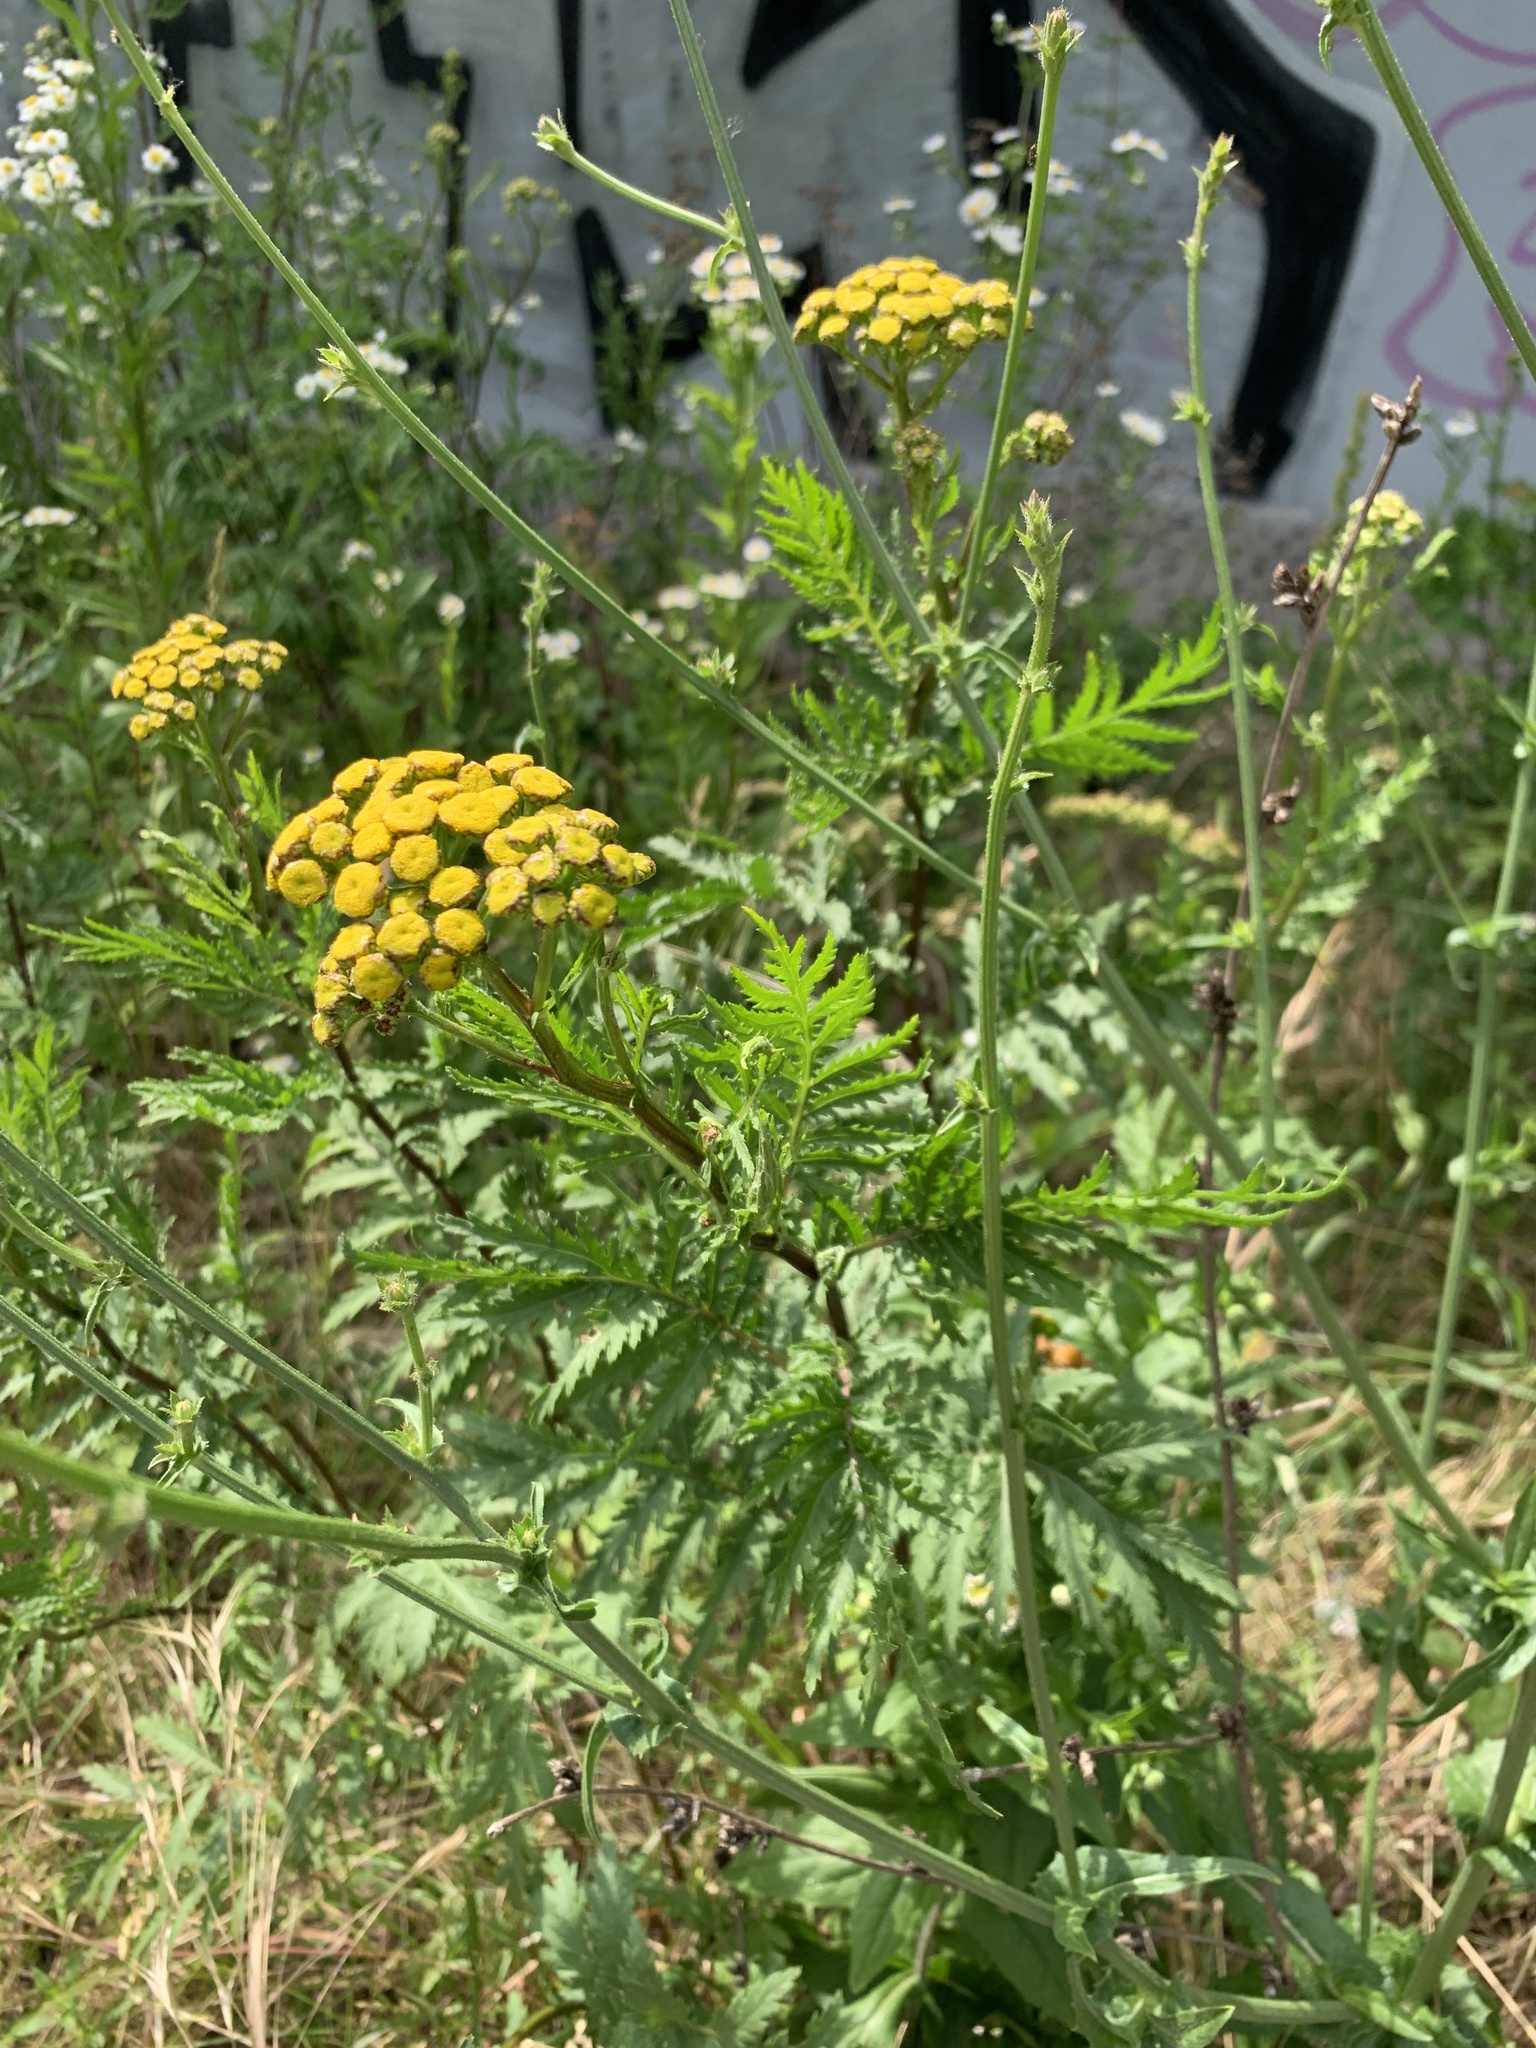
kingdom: Plantae
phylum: Tracheophyta
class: Magnoliopsida
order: Asterales
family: Asteraceae
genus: Tanacetum
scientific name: Tanacetum vulgare
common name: Common tansy
